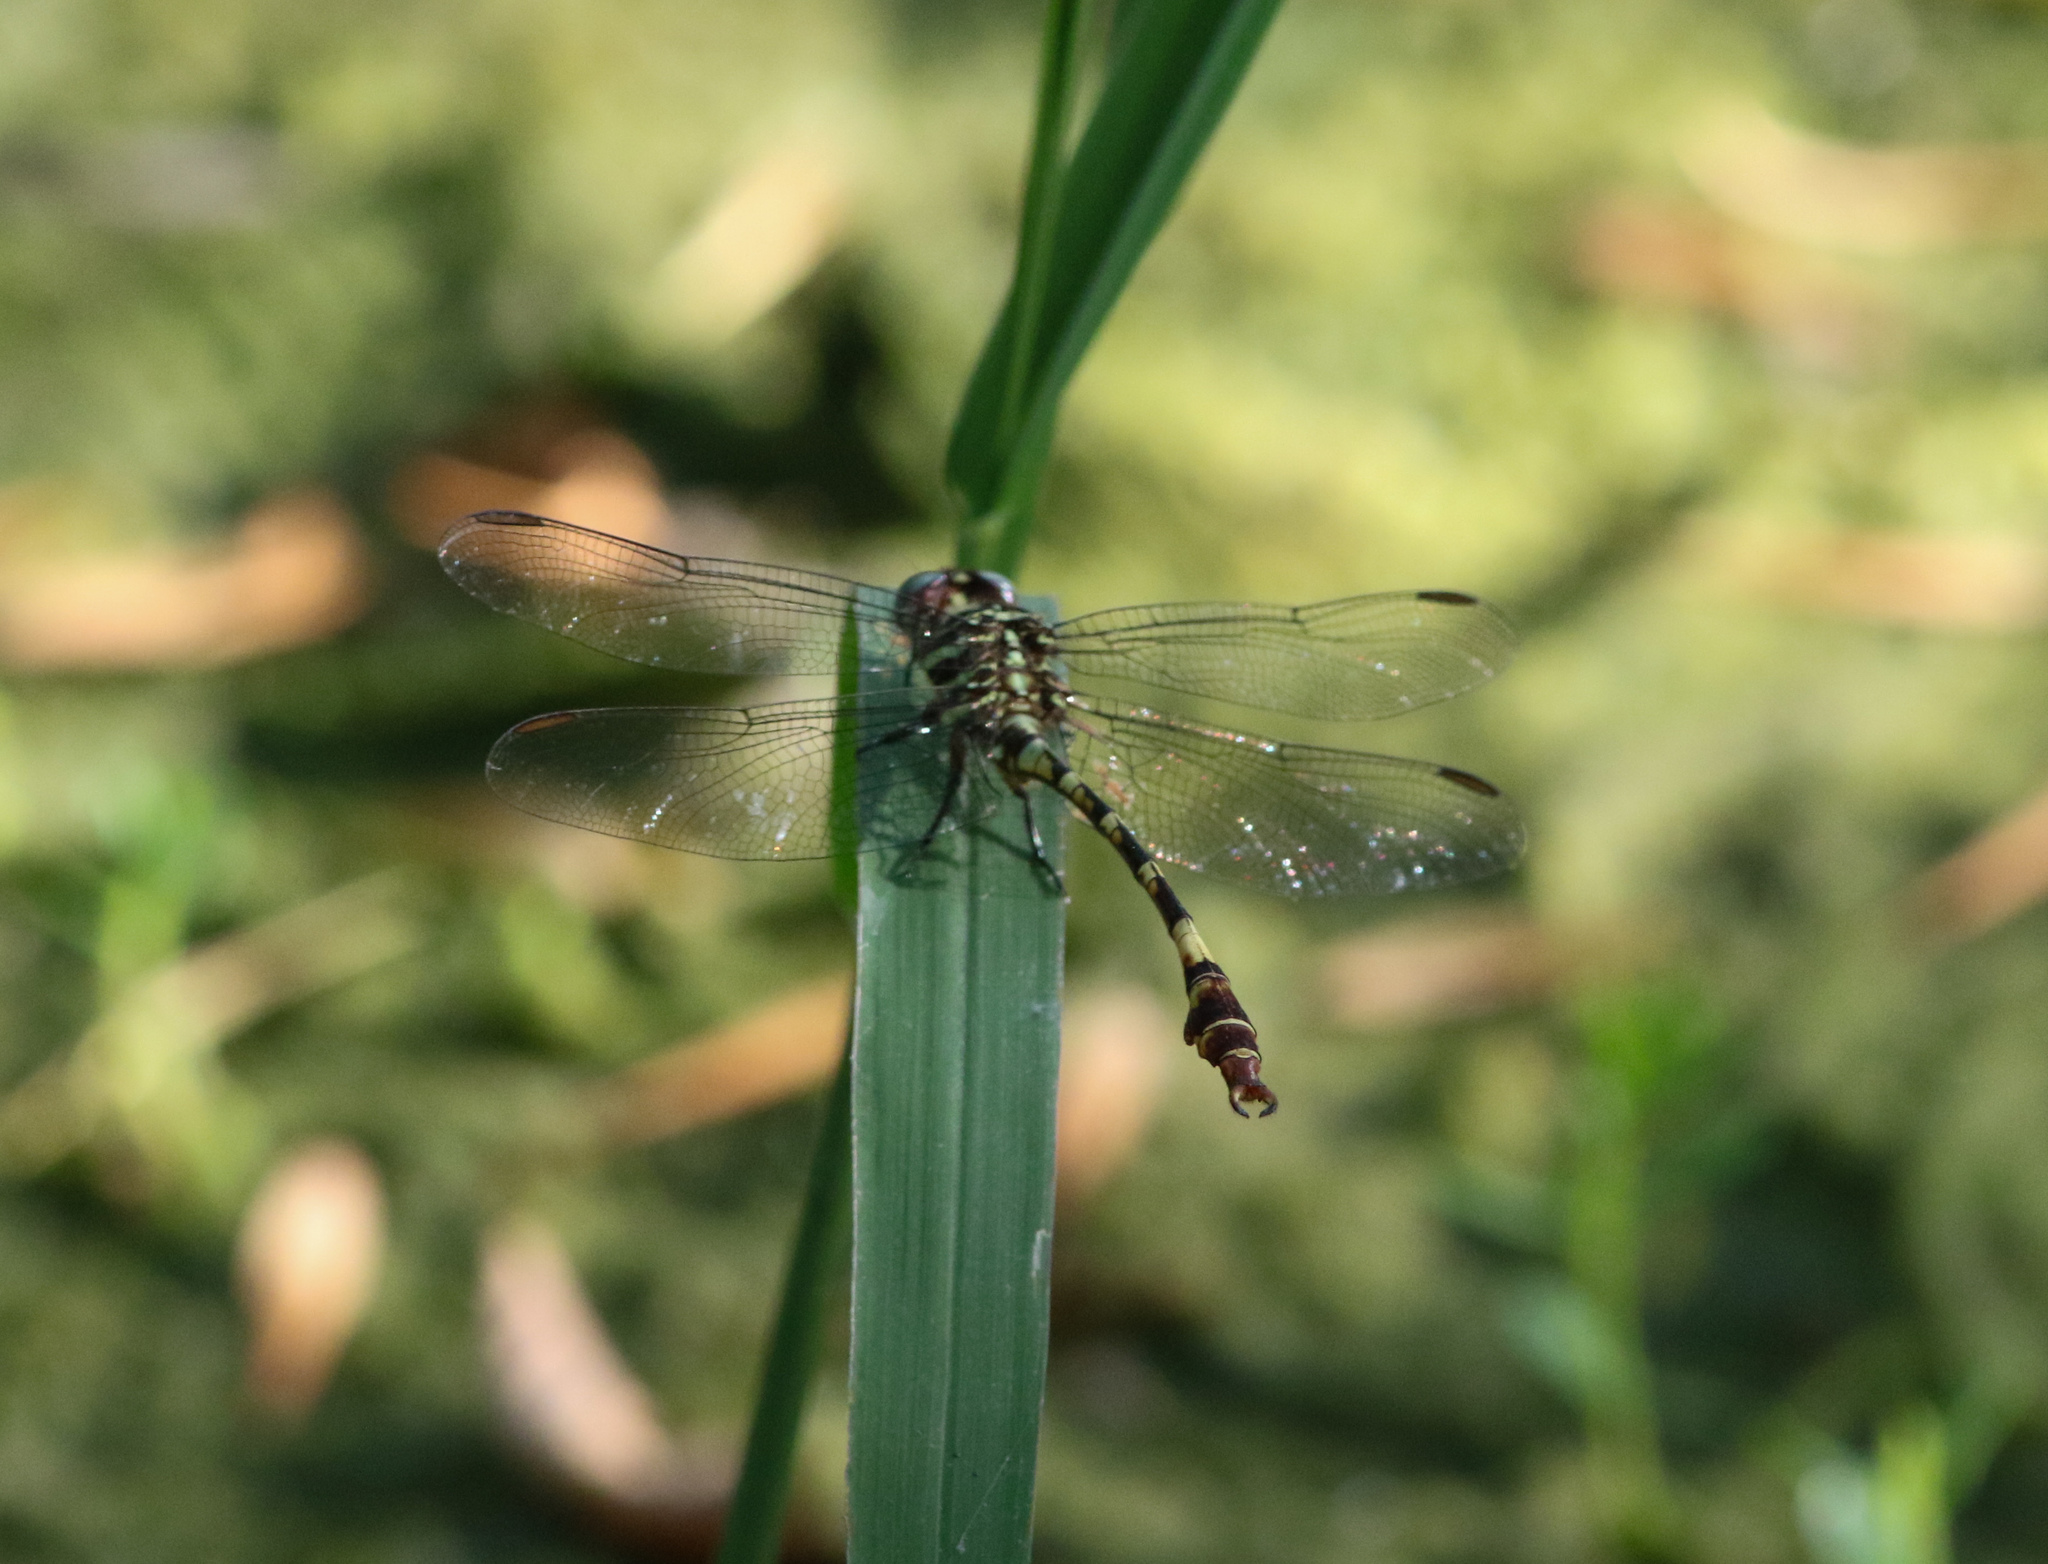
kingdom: Animalia
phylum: Arthropoda
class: Insecta
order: Odonata
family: Gomphidae
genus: Aphylla
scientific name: Aphylla angustifolia
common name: Broad-striped forceptail
